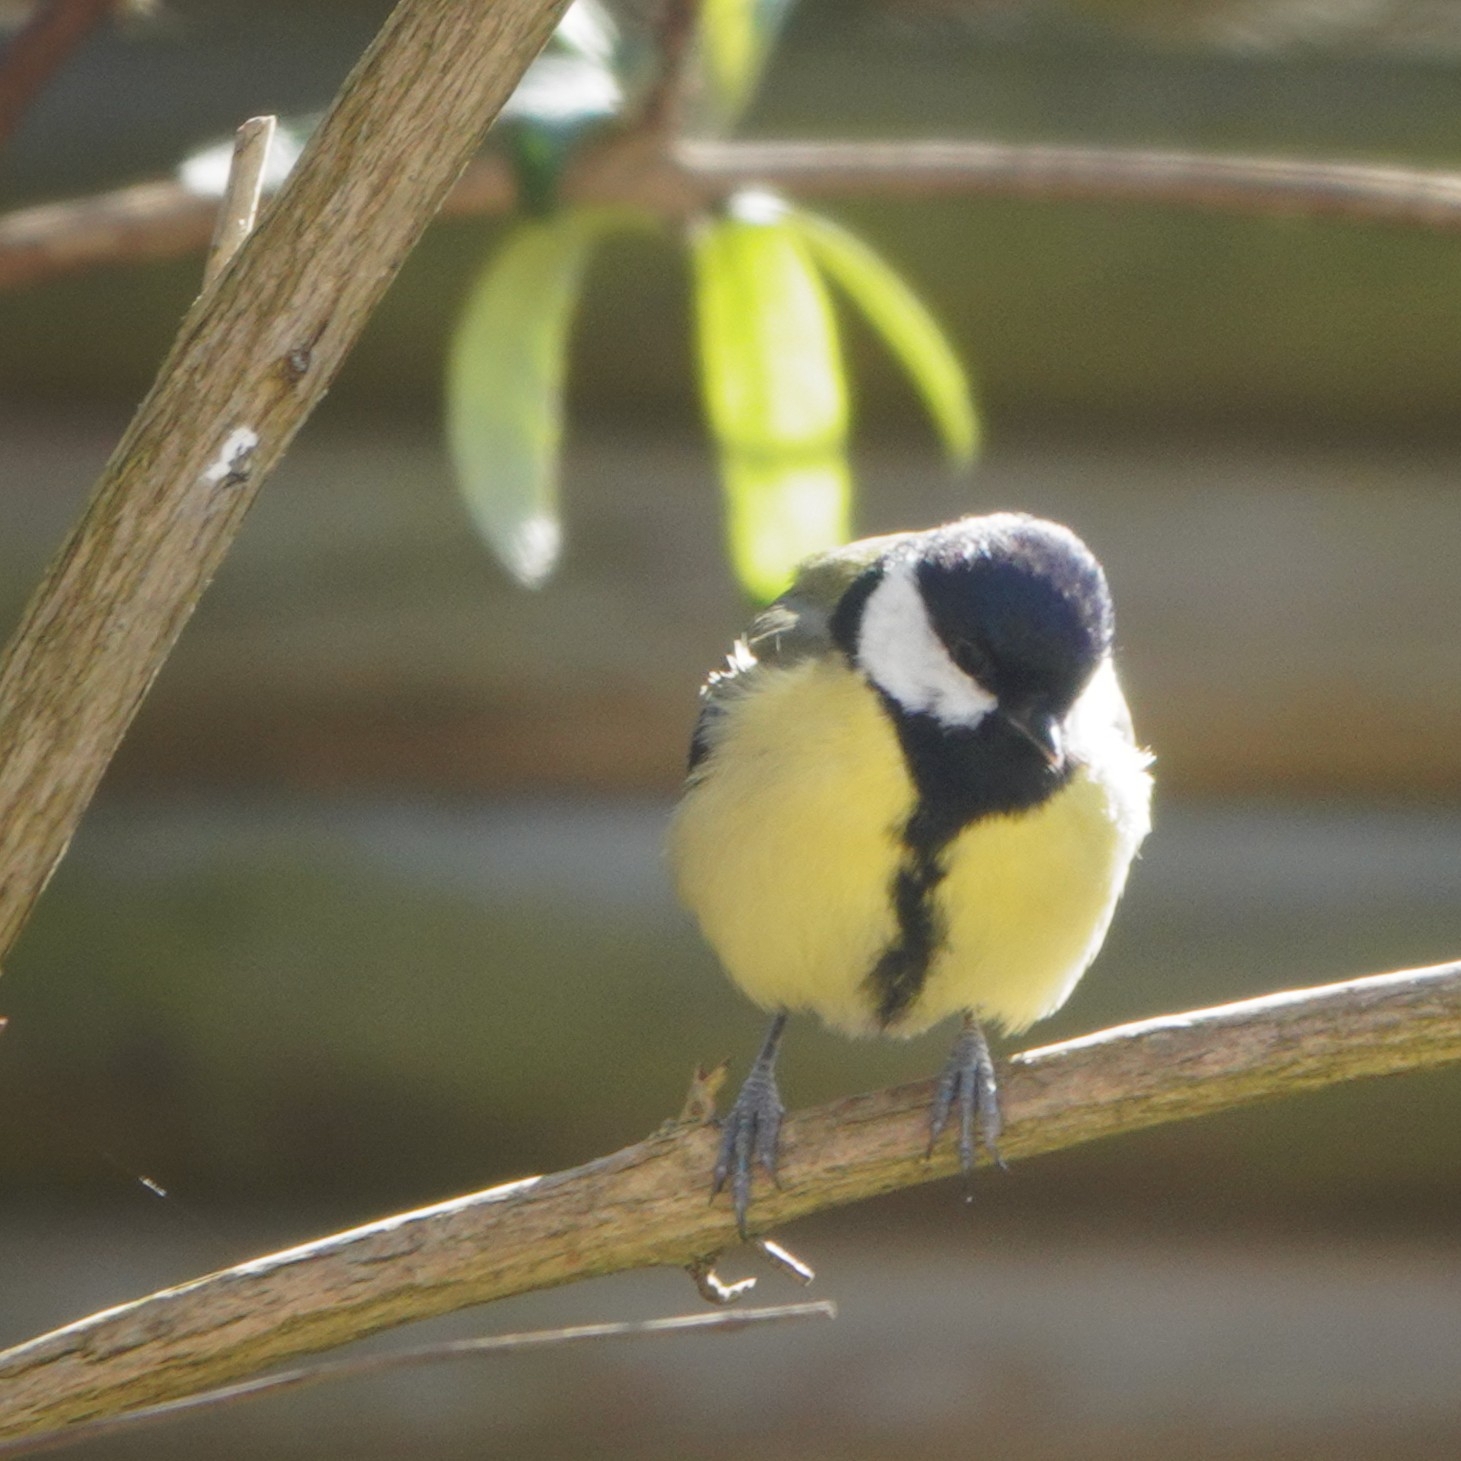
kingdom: Animalia
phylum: Chordata
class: Aves
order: Passeriformes
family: Paridae
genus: Parus
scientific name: Parus major
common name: Great tit
